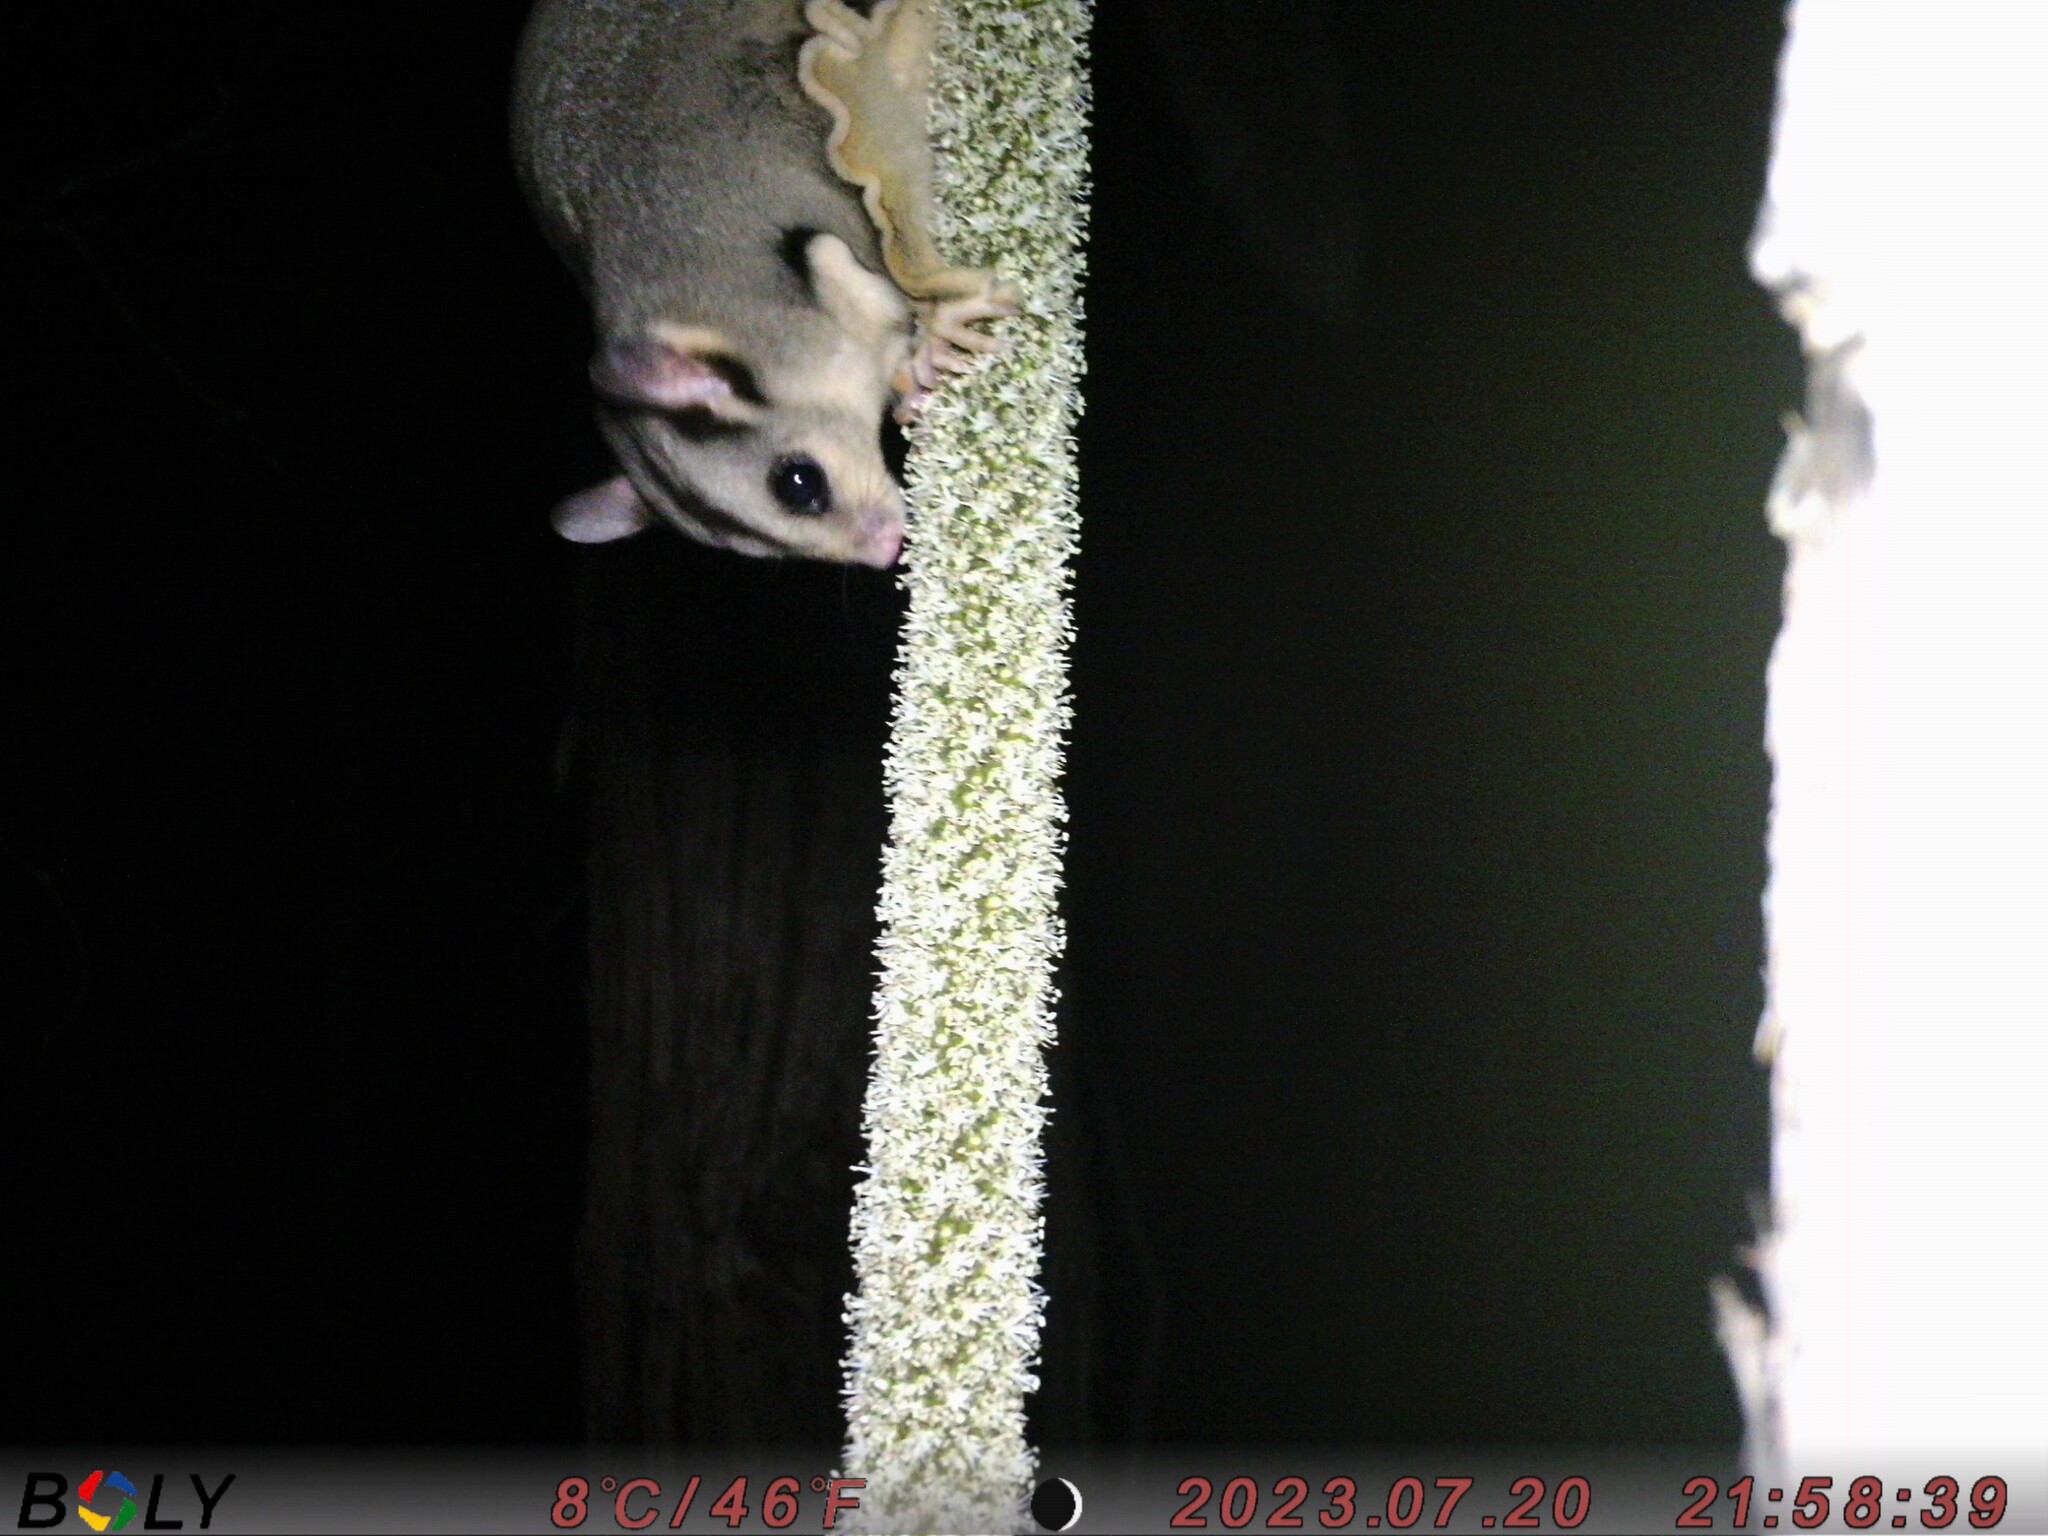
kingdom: Animalia
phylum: Chordata
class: Mammalia
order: Diprotodontia
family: Petauridae
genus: Petaurus
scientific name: Petaurus norfolcensis
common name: Squirrel glider
